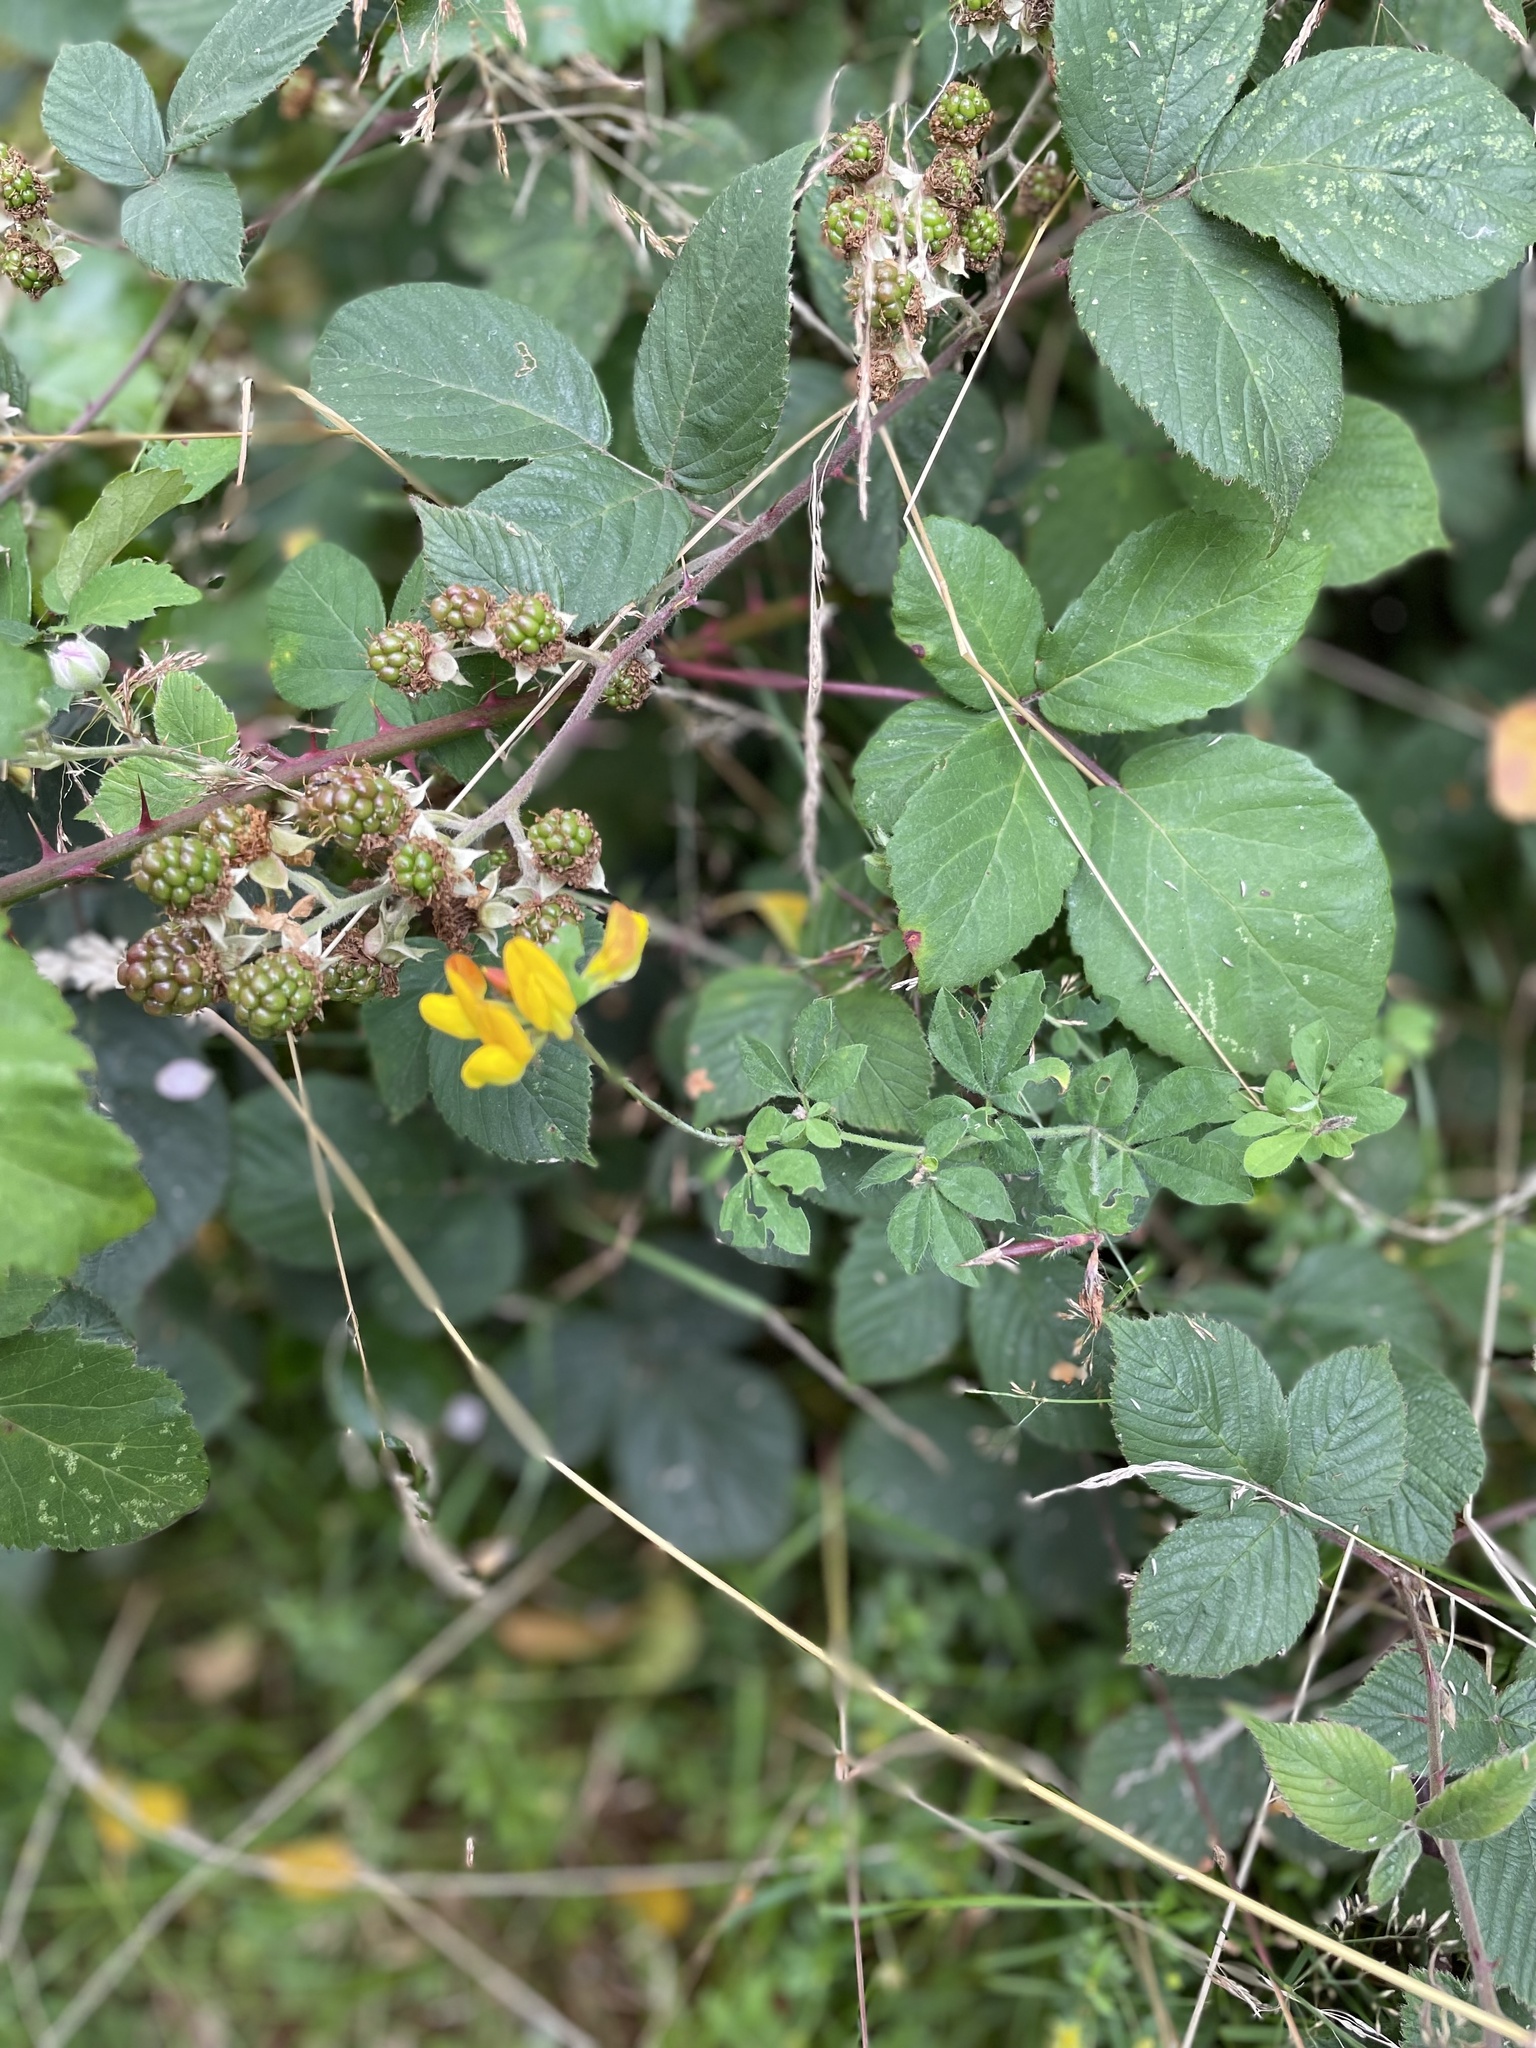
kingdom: Plantae
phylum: Tracheophyta
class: Magnoliopsida
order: Fabales
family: Fabaceae
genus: Lotus
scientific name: Lotus pedunculatus
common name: Greater birdsfoot-trefoil
